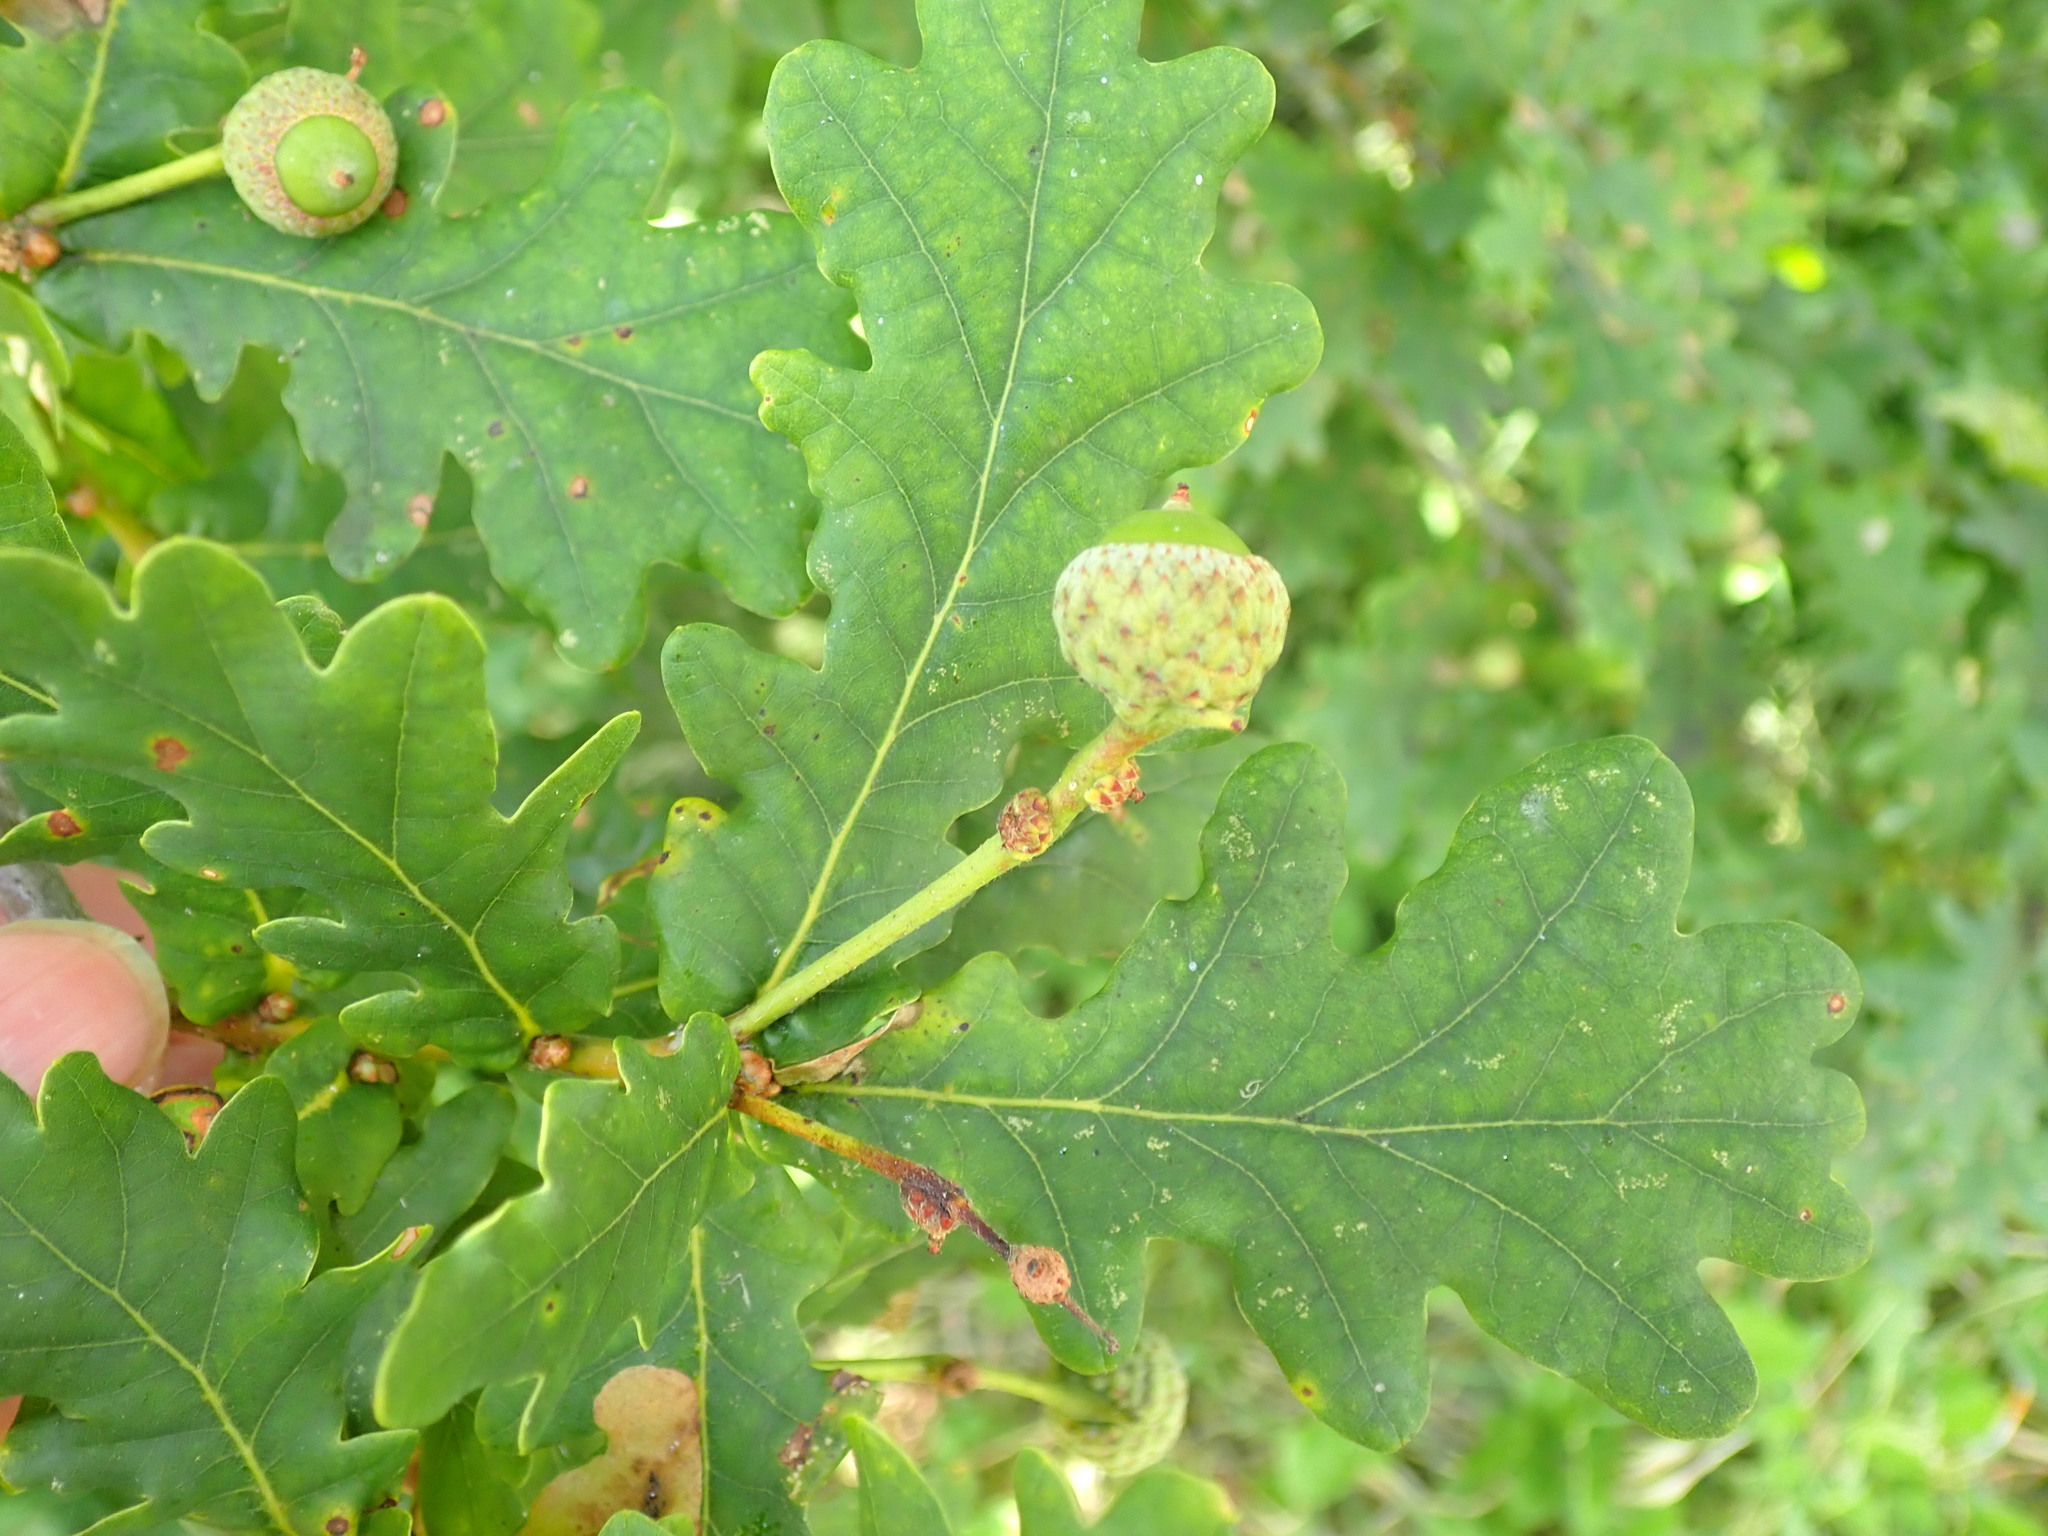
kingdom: Plantae
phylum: Tracheophyta
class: Magnoliopsida
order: Fagales
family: Fagaceae
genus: Quercus
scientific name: Quercus robur
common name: Pedunculate oak
